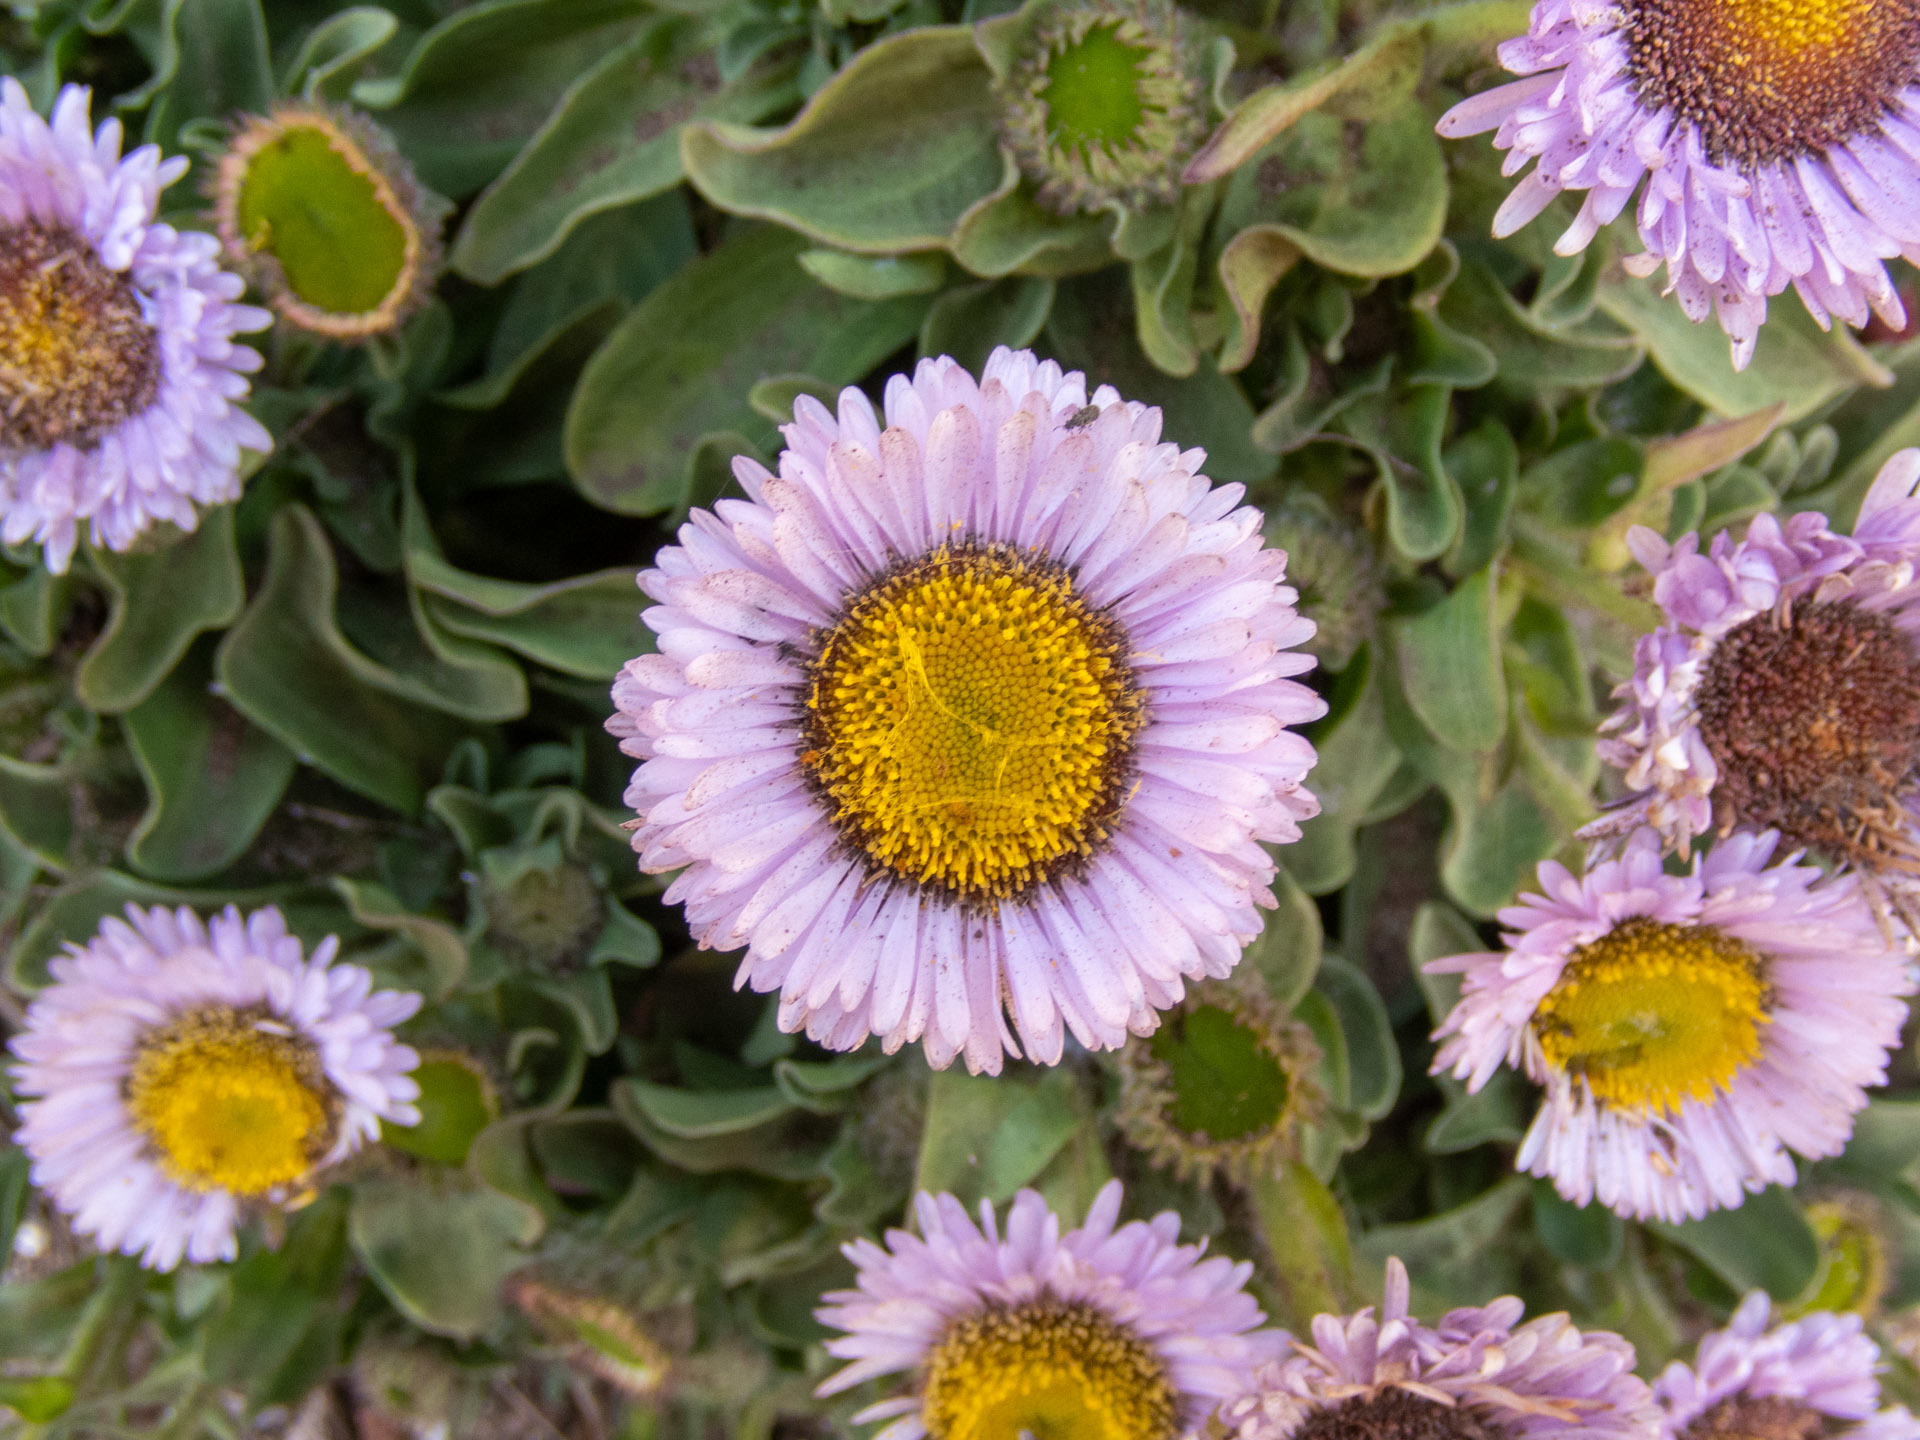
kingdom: Plantae
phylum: Tracheophyta
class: Magnoliopsida
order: Asterales
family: Asteraceae
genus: Erigeron
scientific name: Erigeron glaucus
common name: Seaside daisy
